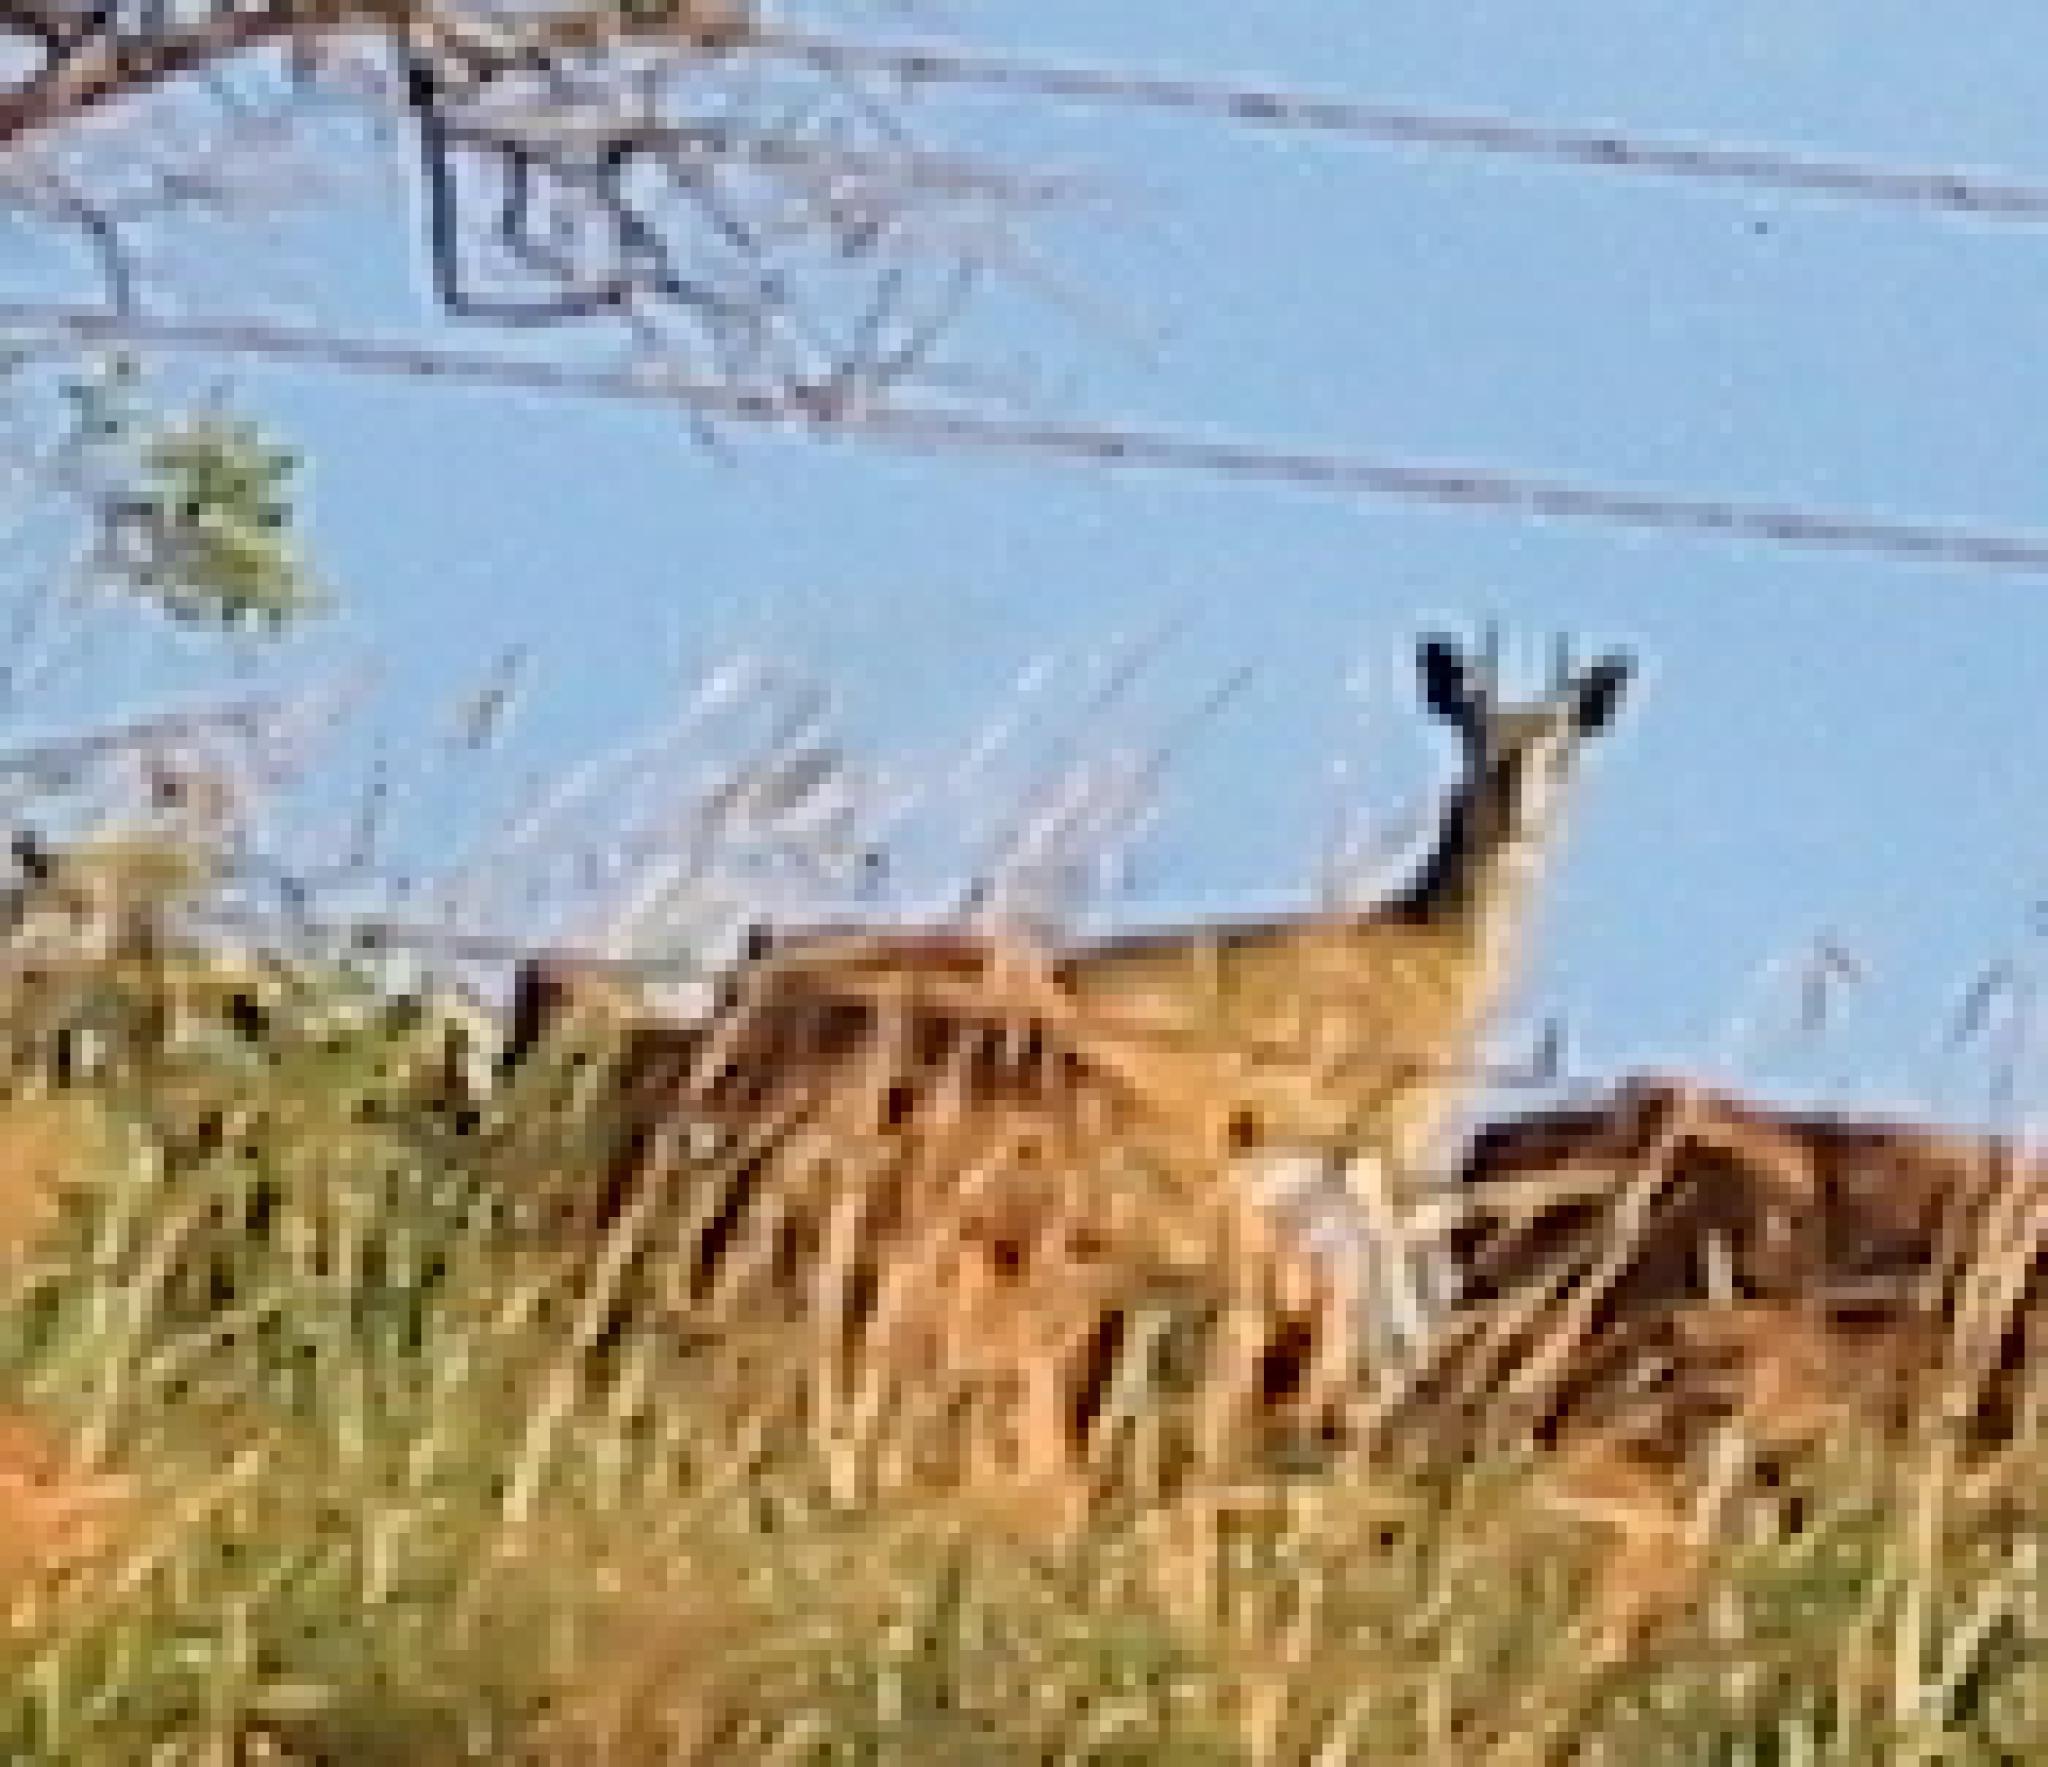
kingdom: Animalia
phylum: Chordata
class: Mammalia
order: Artiodactyla
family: Bovidae
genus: Oreotragus
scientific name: Oreotragus oreotragus
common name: Klipspringer
